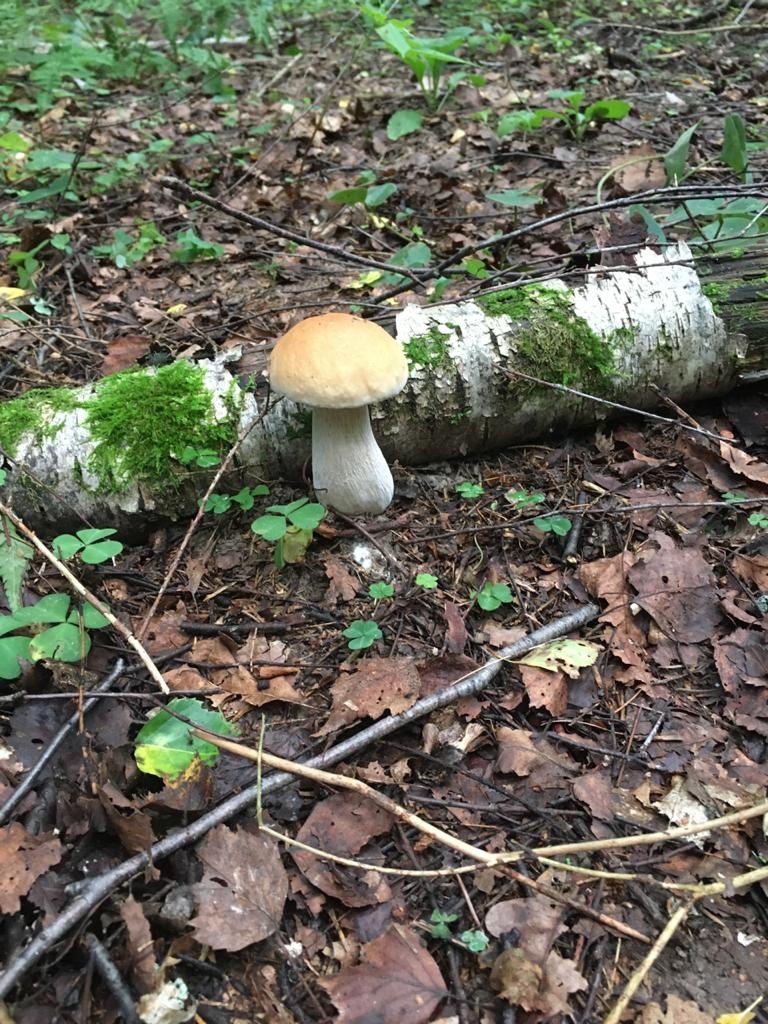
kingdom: Fungi
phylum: Basidiomycota
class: Agaricomycetes
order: Boletales
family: Boletaceae
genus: Boletus
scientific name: Boletus edulis
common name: Cep
